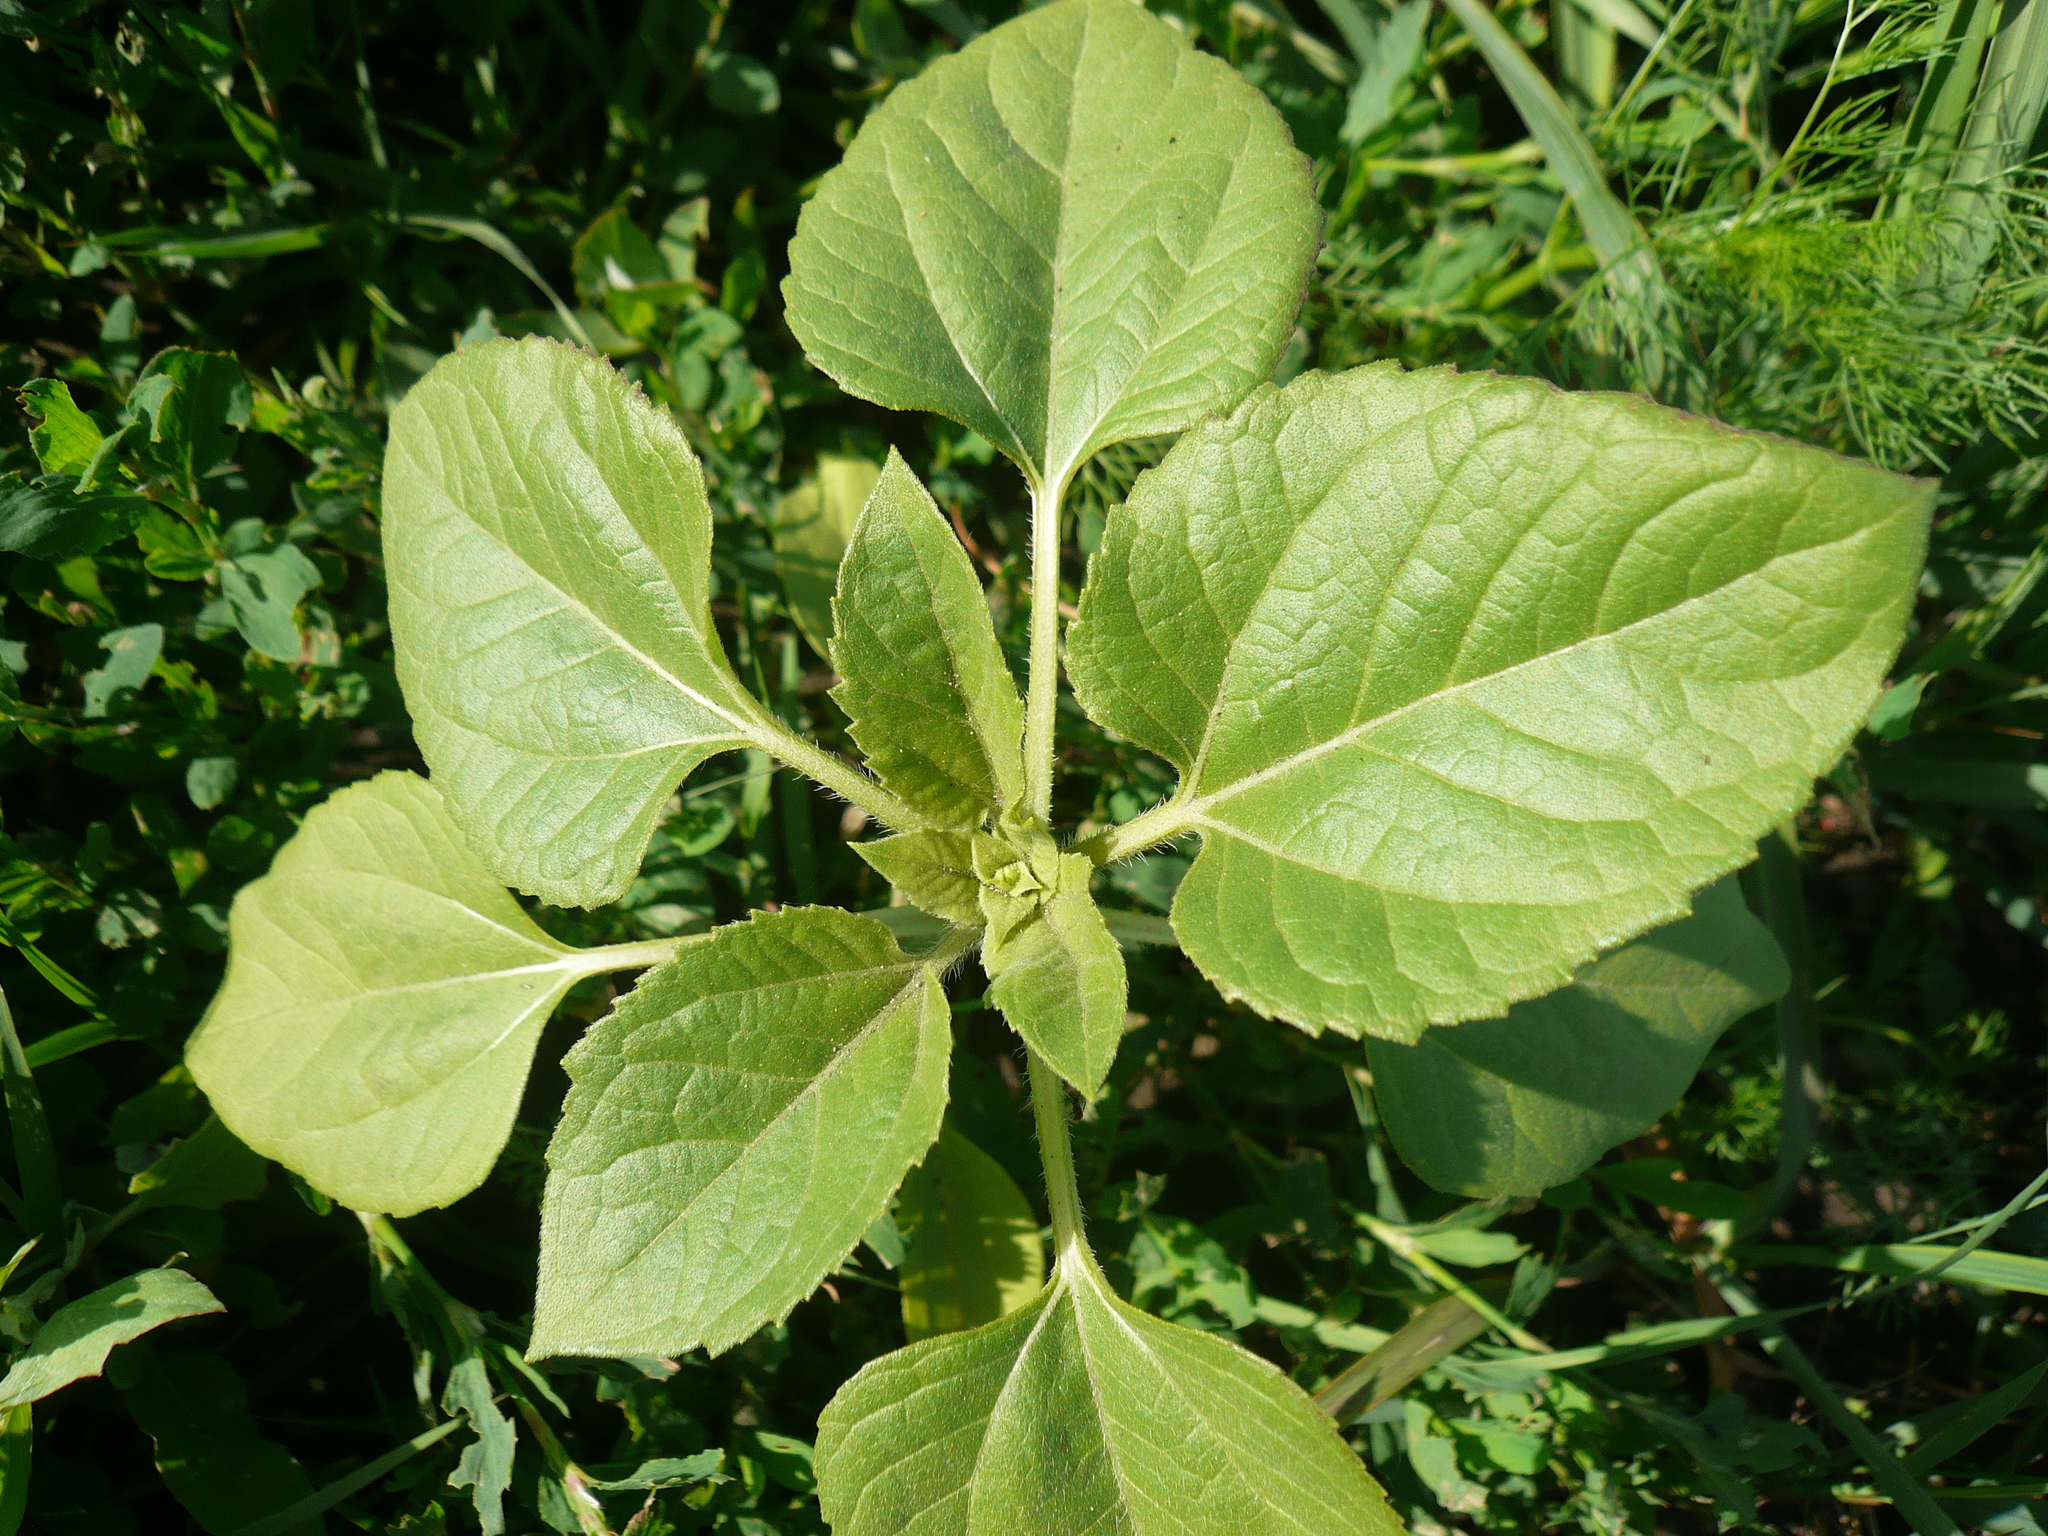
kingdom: Plantae
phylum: Tracheophyta
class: Magnoliopsida
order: Asterales
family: Asteraceae
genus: Helianthus
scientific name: Helianthus annuus
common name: Sunflower
